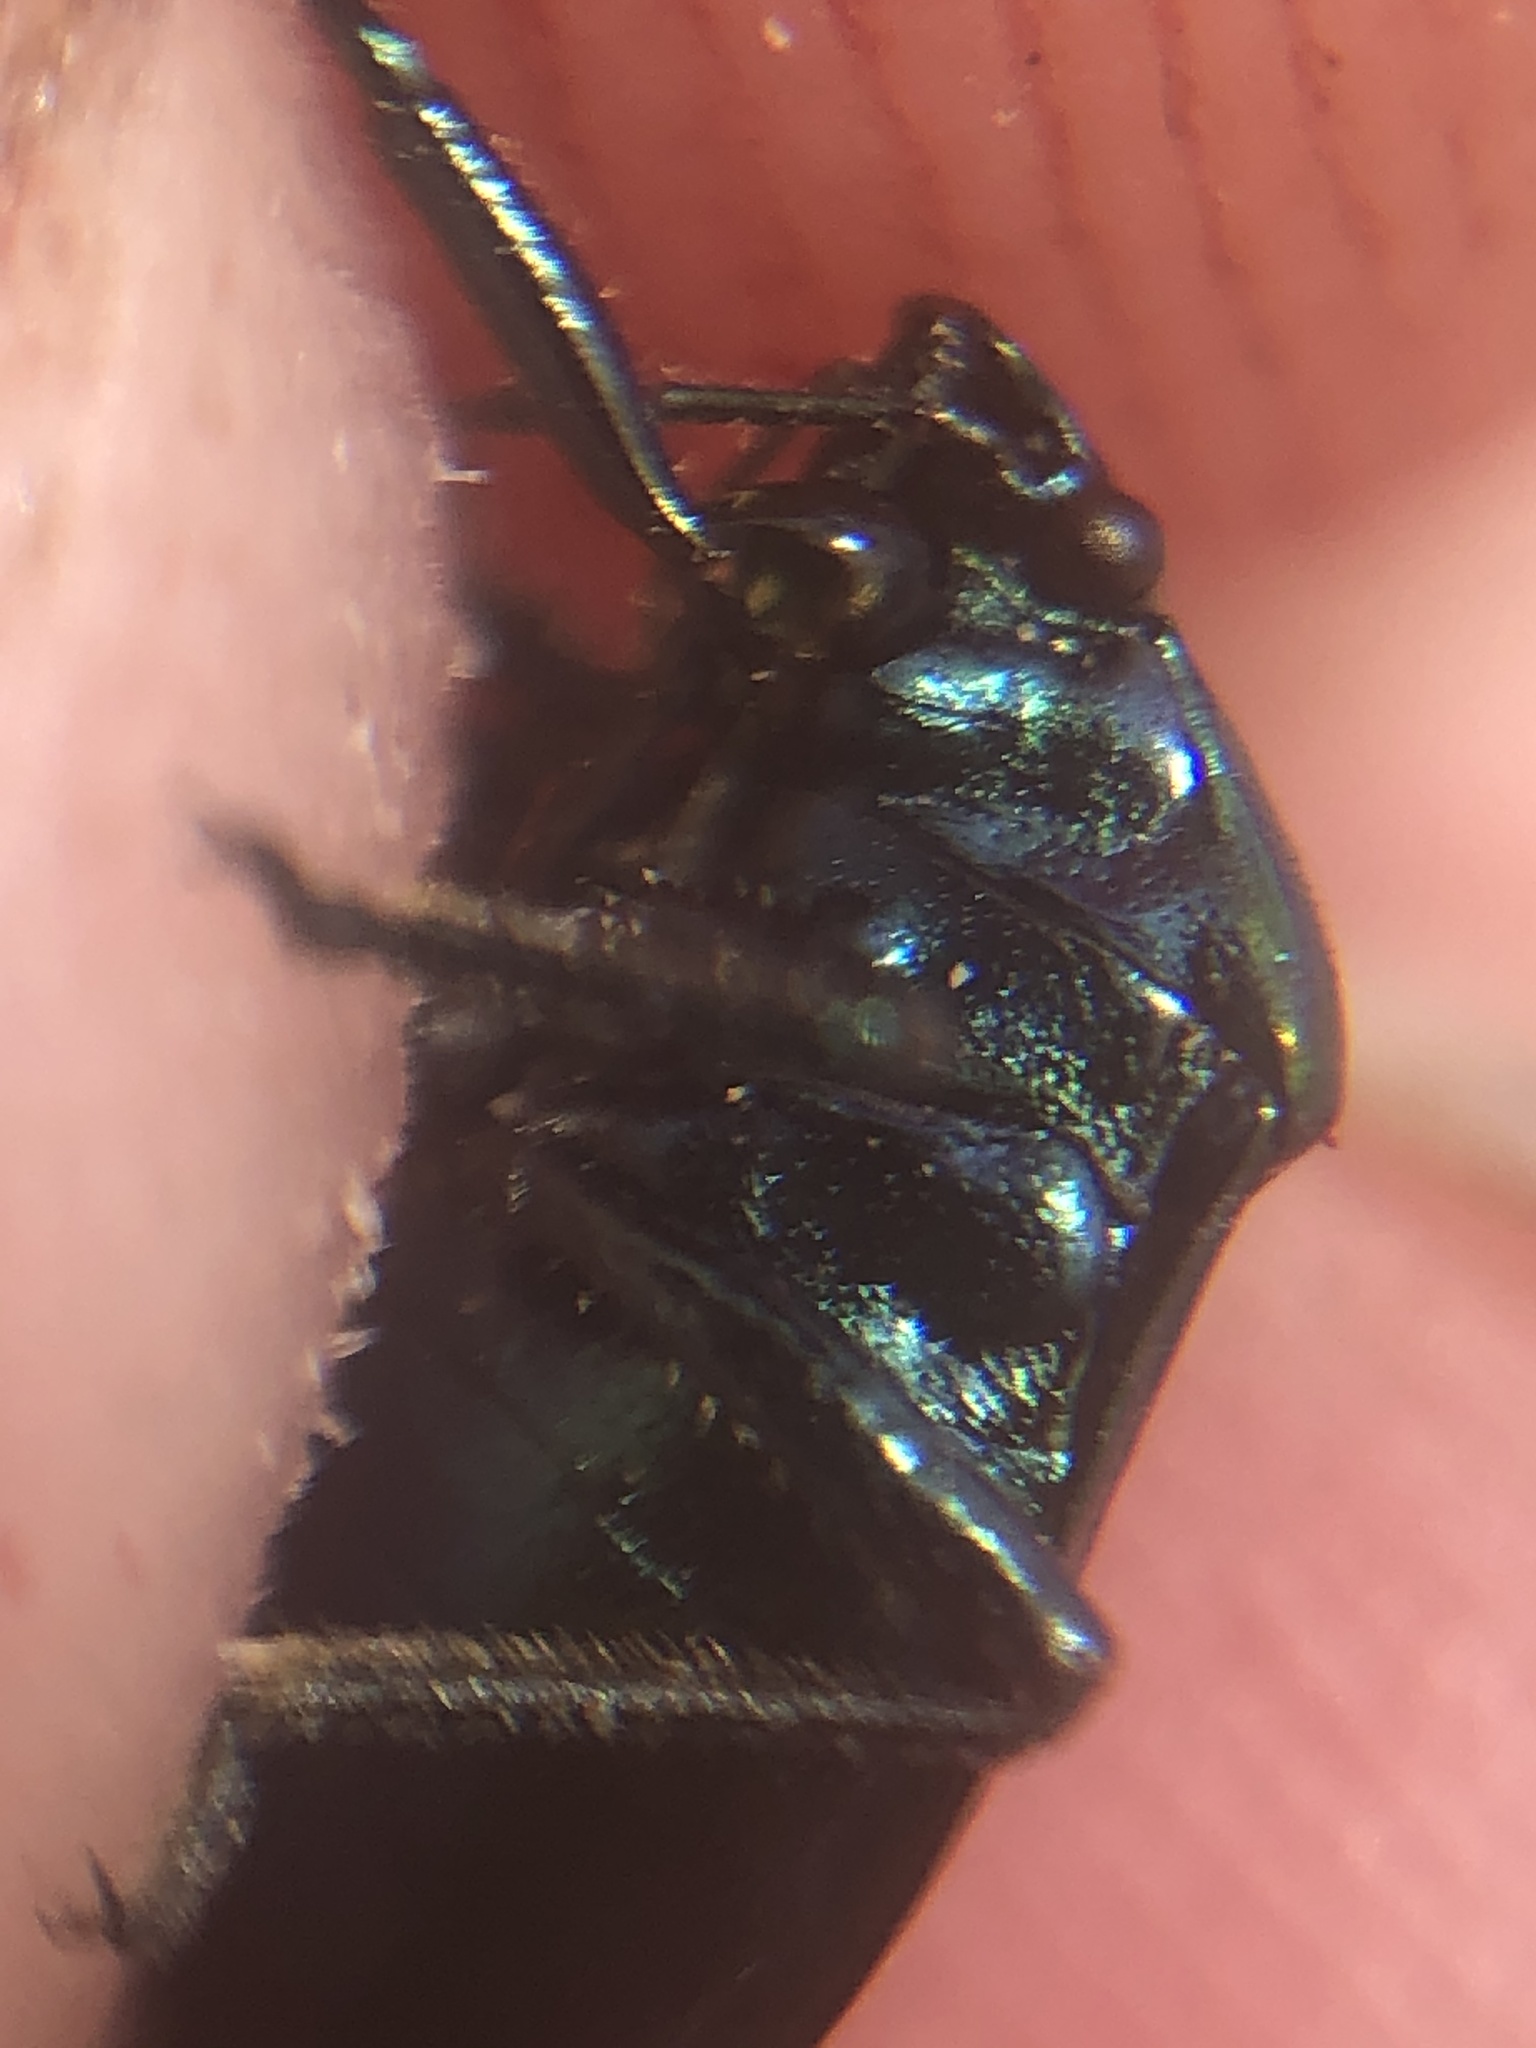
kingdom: Animalia
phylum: Arthropoda
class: Insecta
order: Hemiptera
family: Pentatomidae
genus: Zicrona
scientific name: Zicrona
